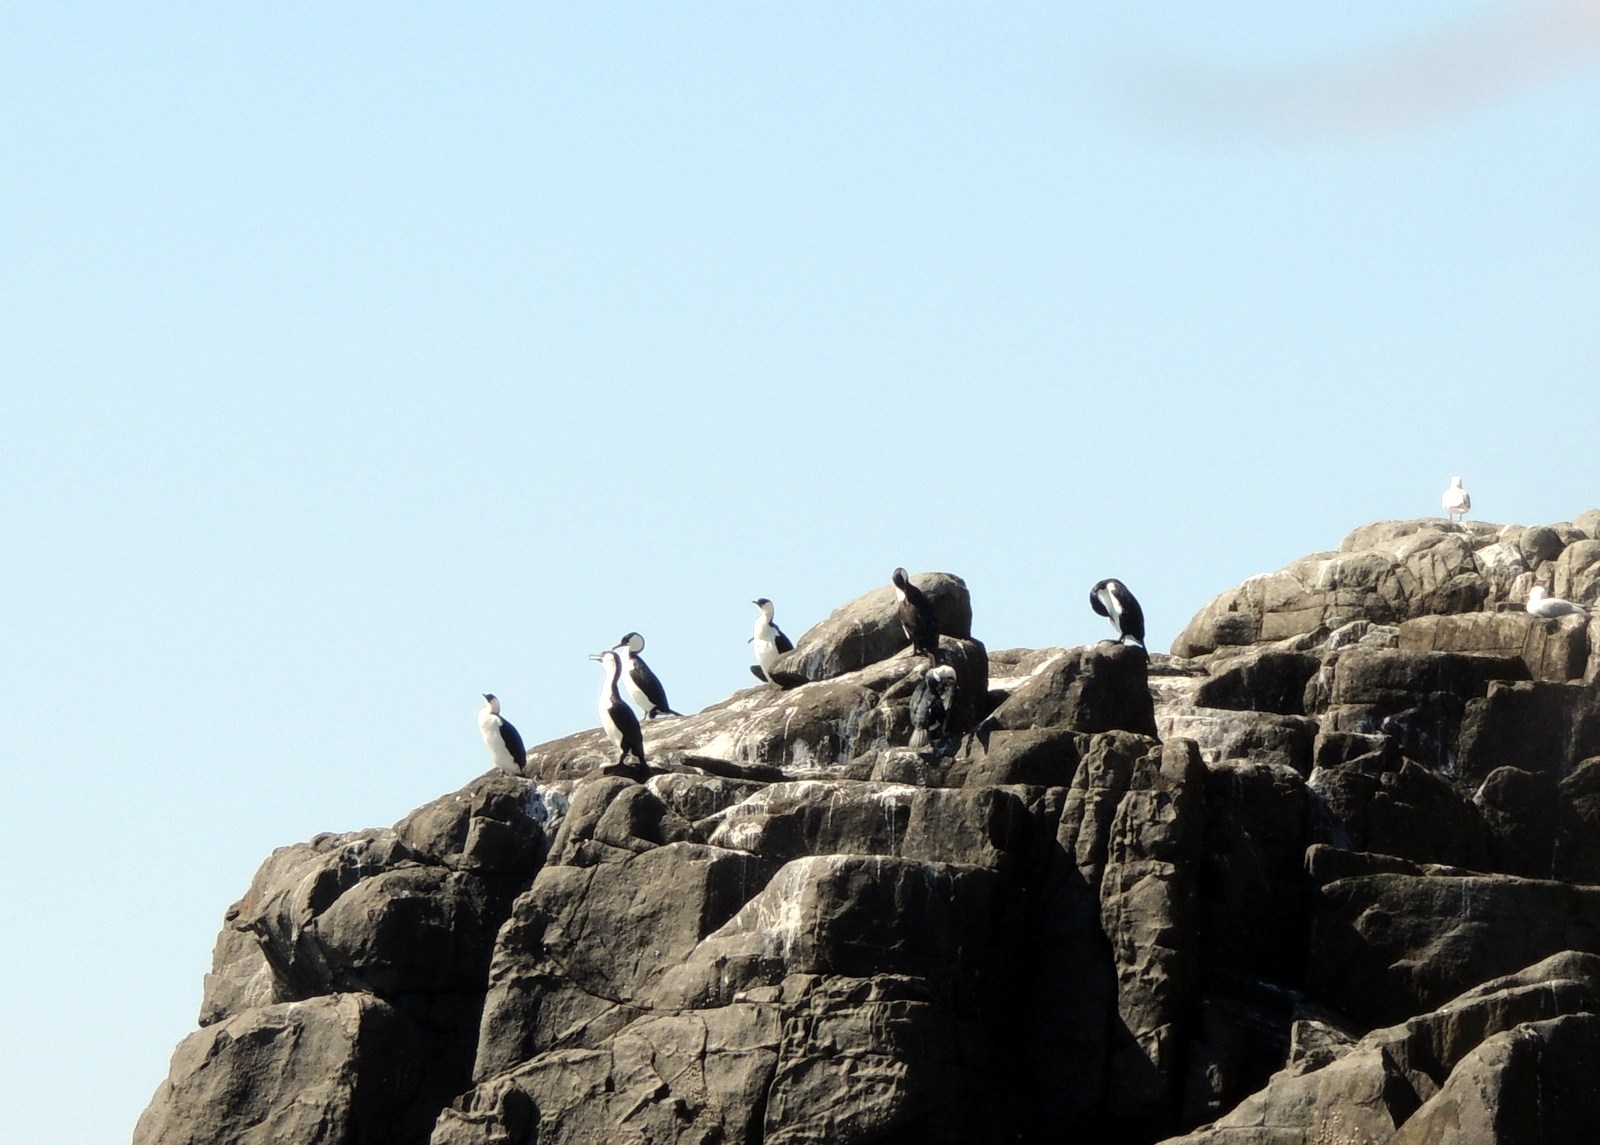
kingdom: Animalia
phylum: Chordata
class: Aves
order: Suliformes
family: Phalacrocoracidae
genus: Phalacrocorax
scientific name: Phalacrocorax fuscescens
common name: Black-faced cormorant
